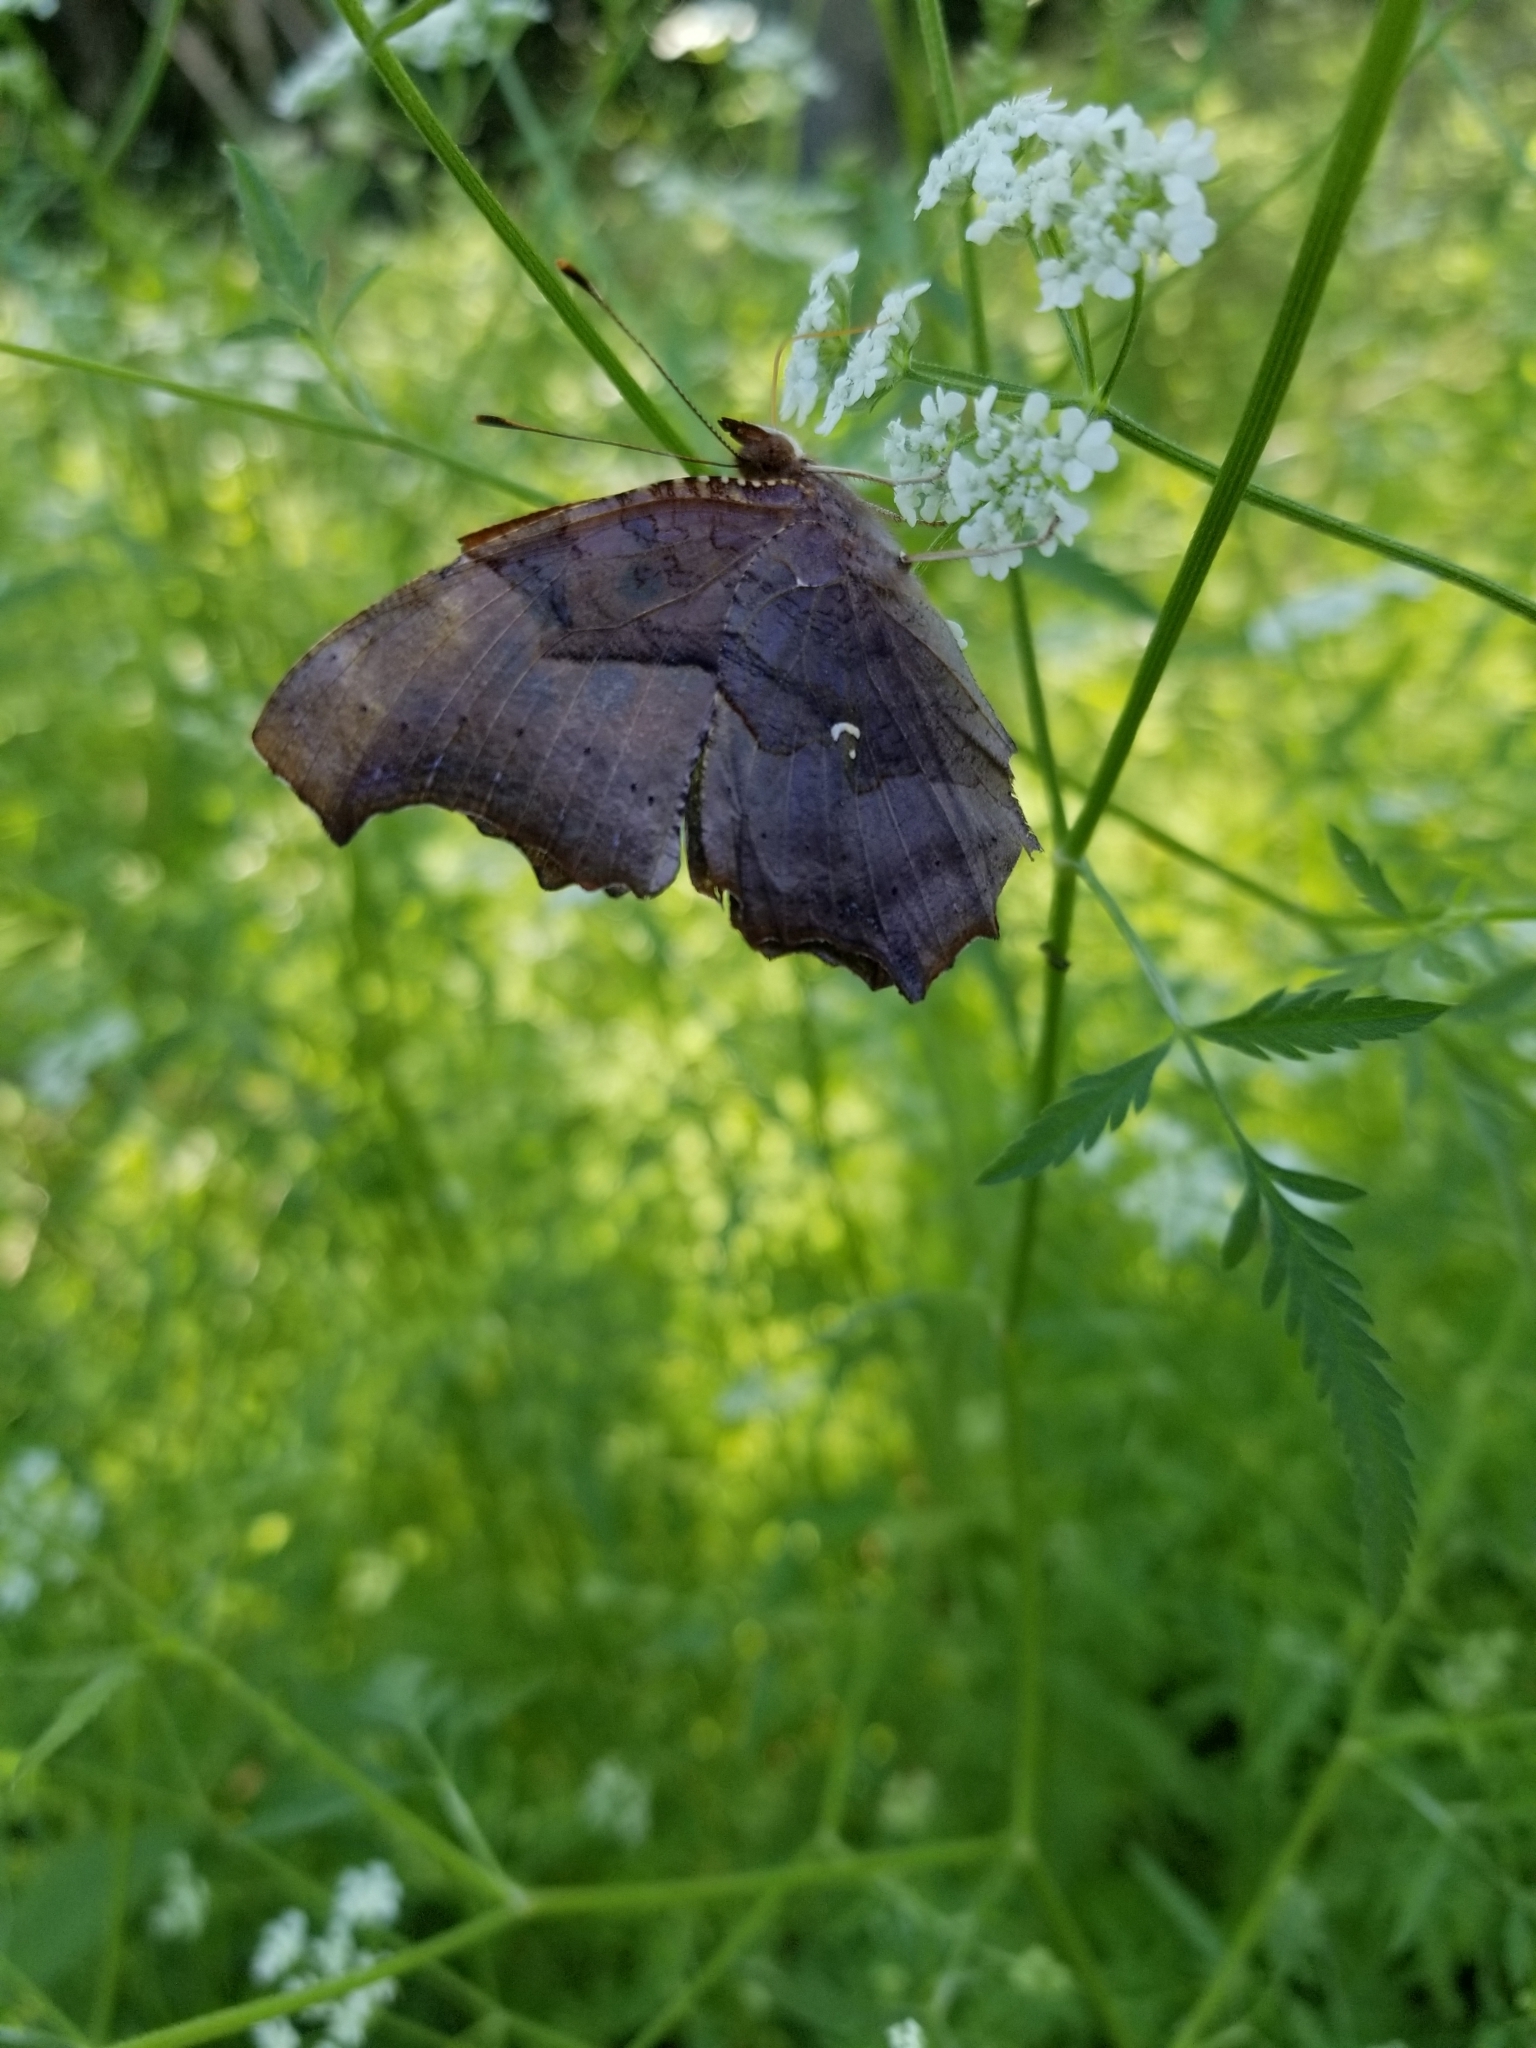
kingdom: Animalia
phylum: Arthropoda
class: Insecta
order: Lepidoptera
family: Nymphalidae
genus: Polygonia
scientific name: Polygonia interrogationis
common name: Question mark
